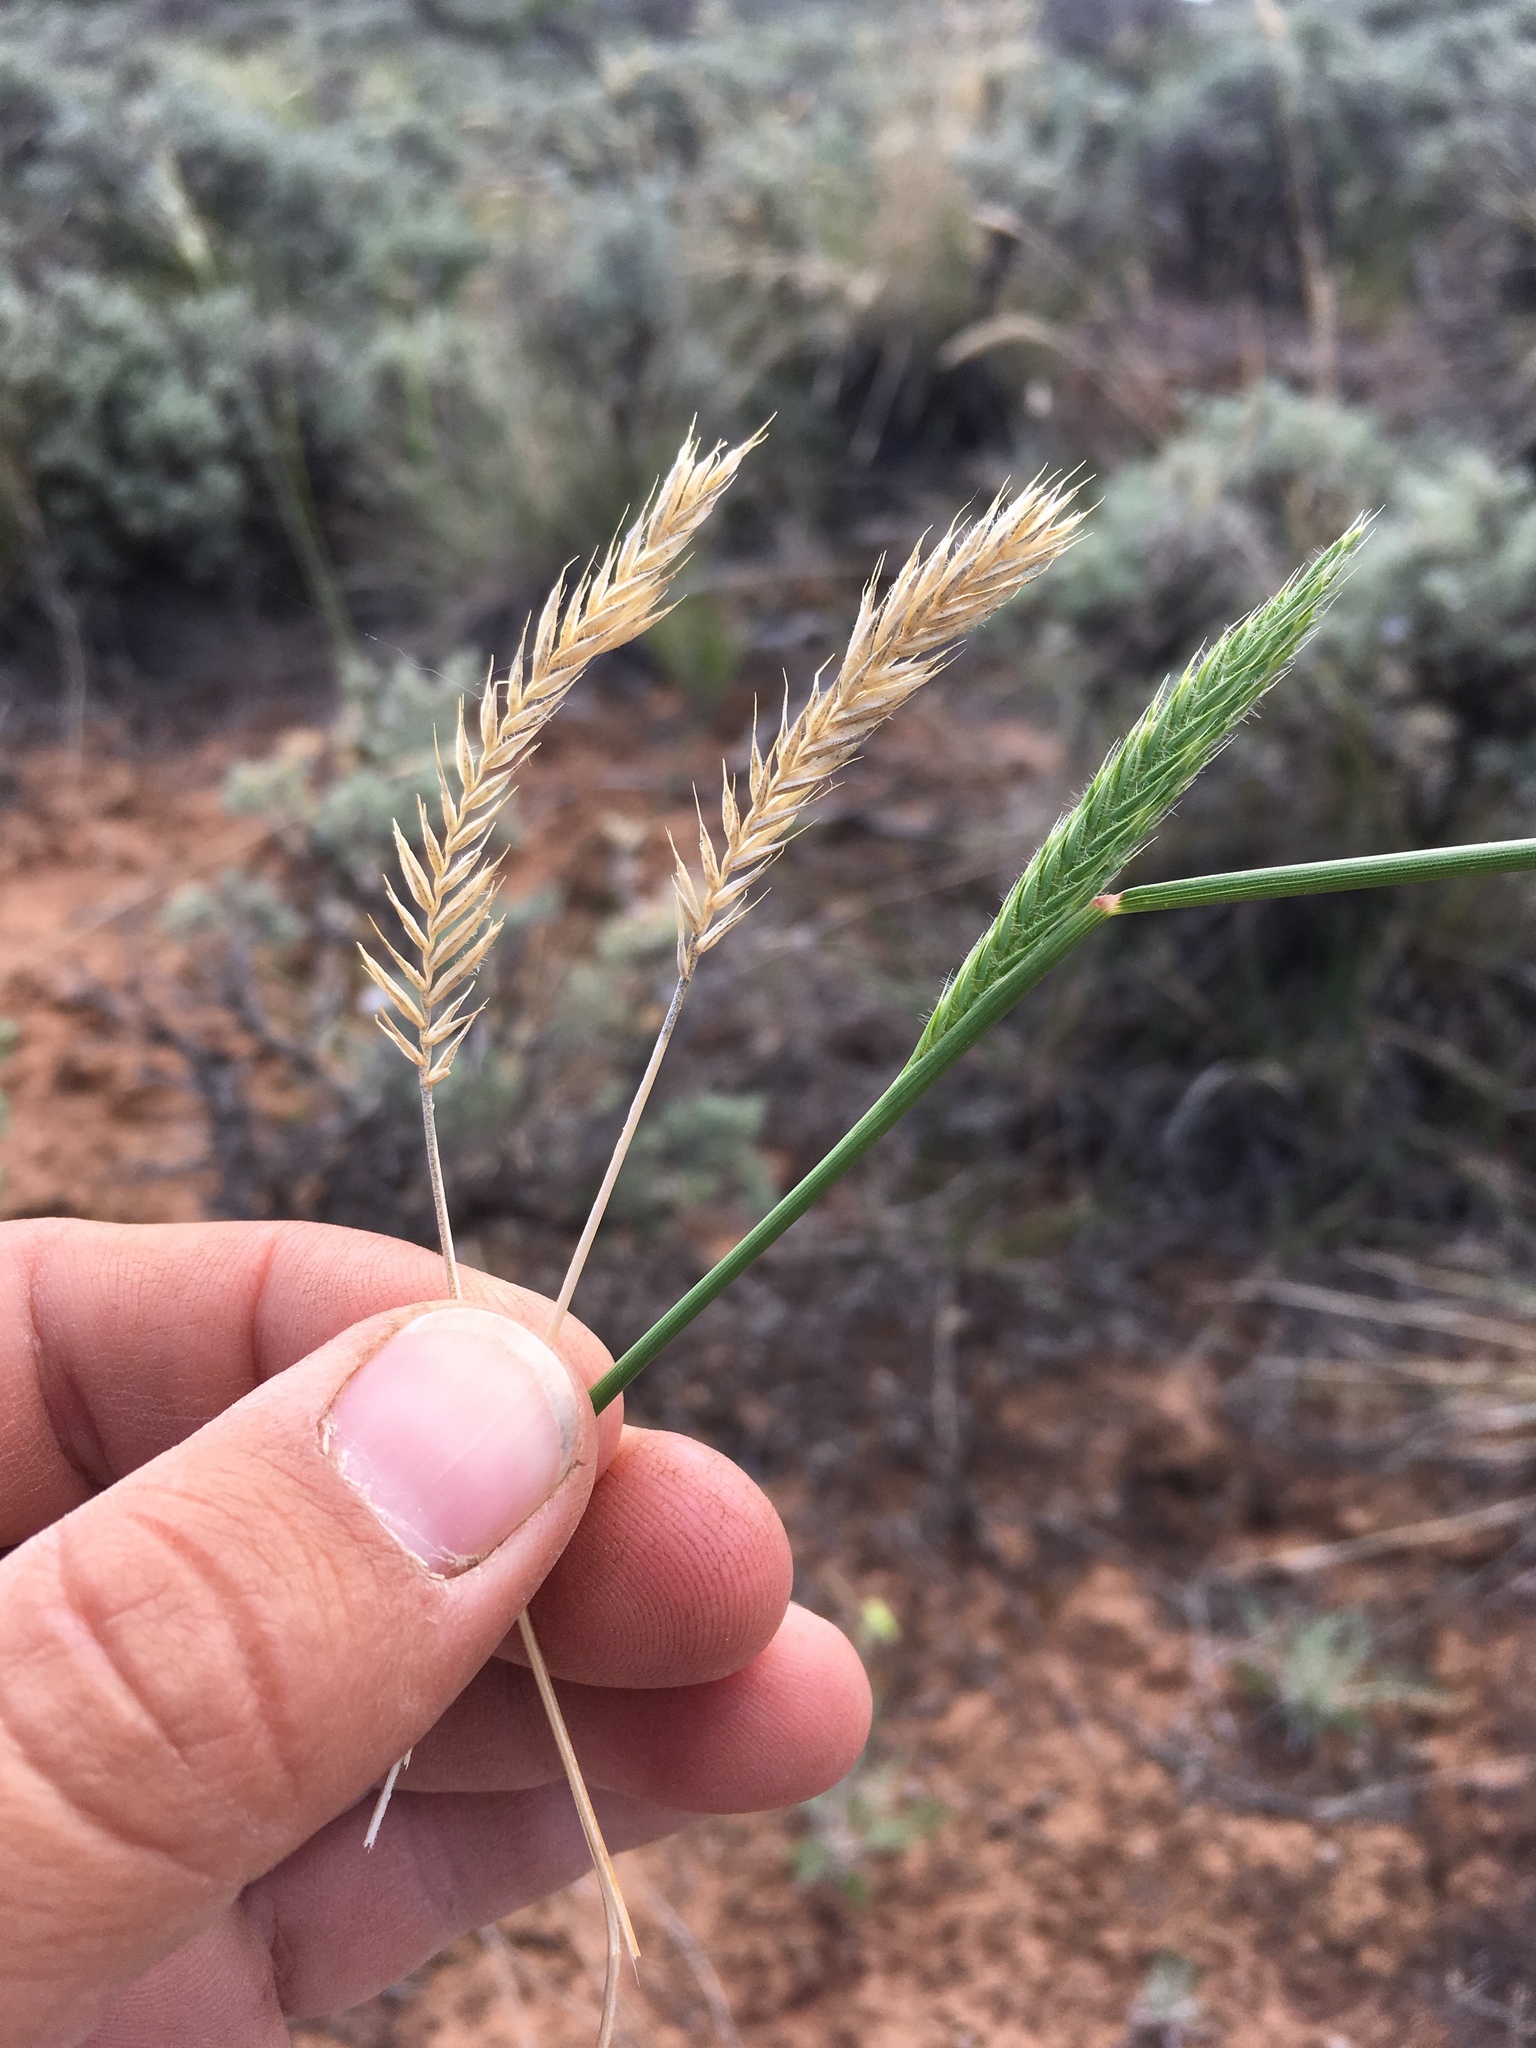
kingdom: Plantae
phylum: Tracheophyta
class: Liliopsida
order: Poales
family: Poaceae
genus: Agropyron
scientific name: Agropyron cristatum
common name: Crested wheatgrass
